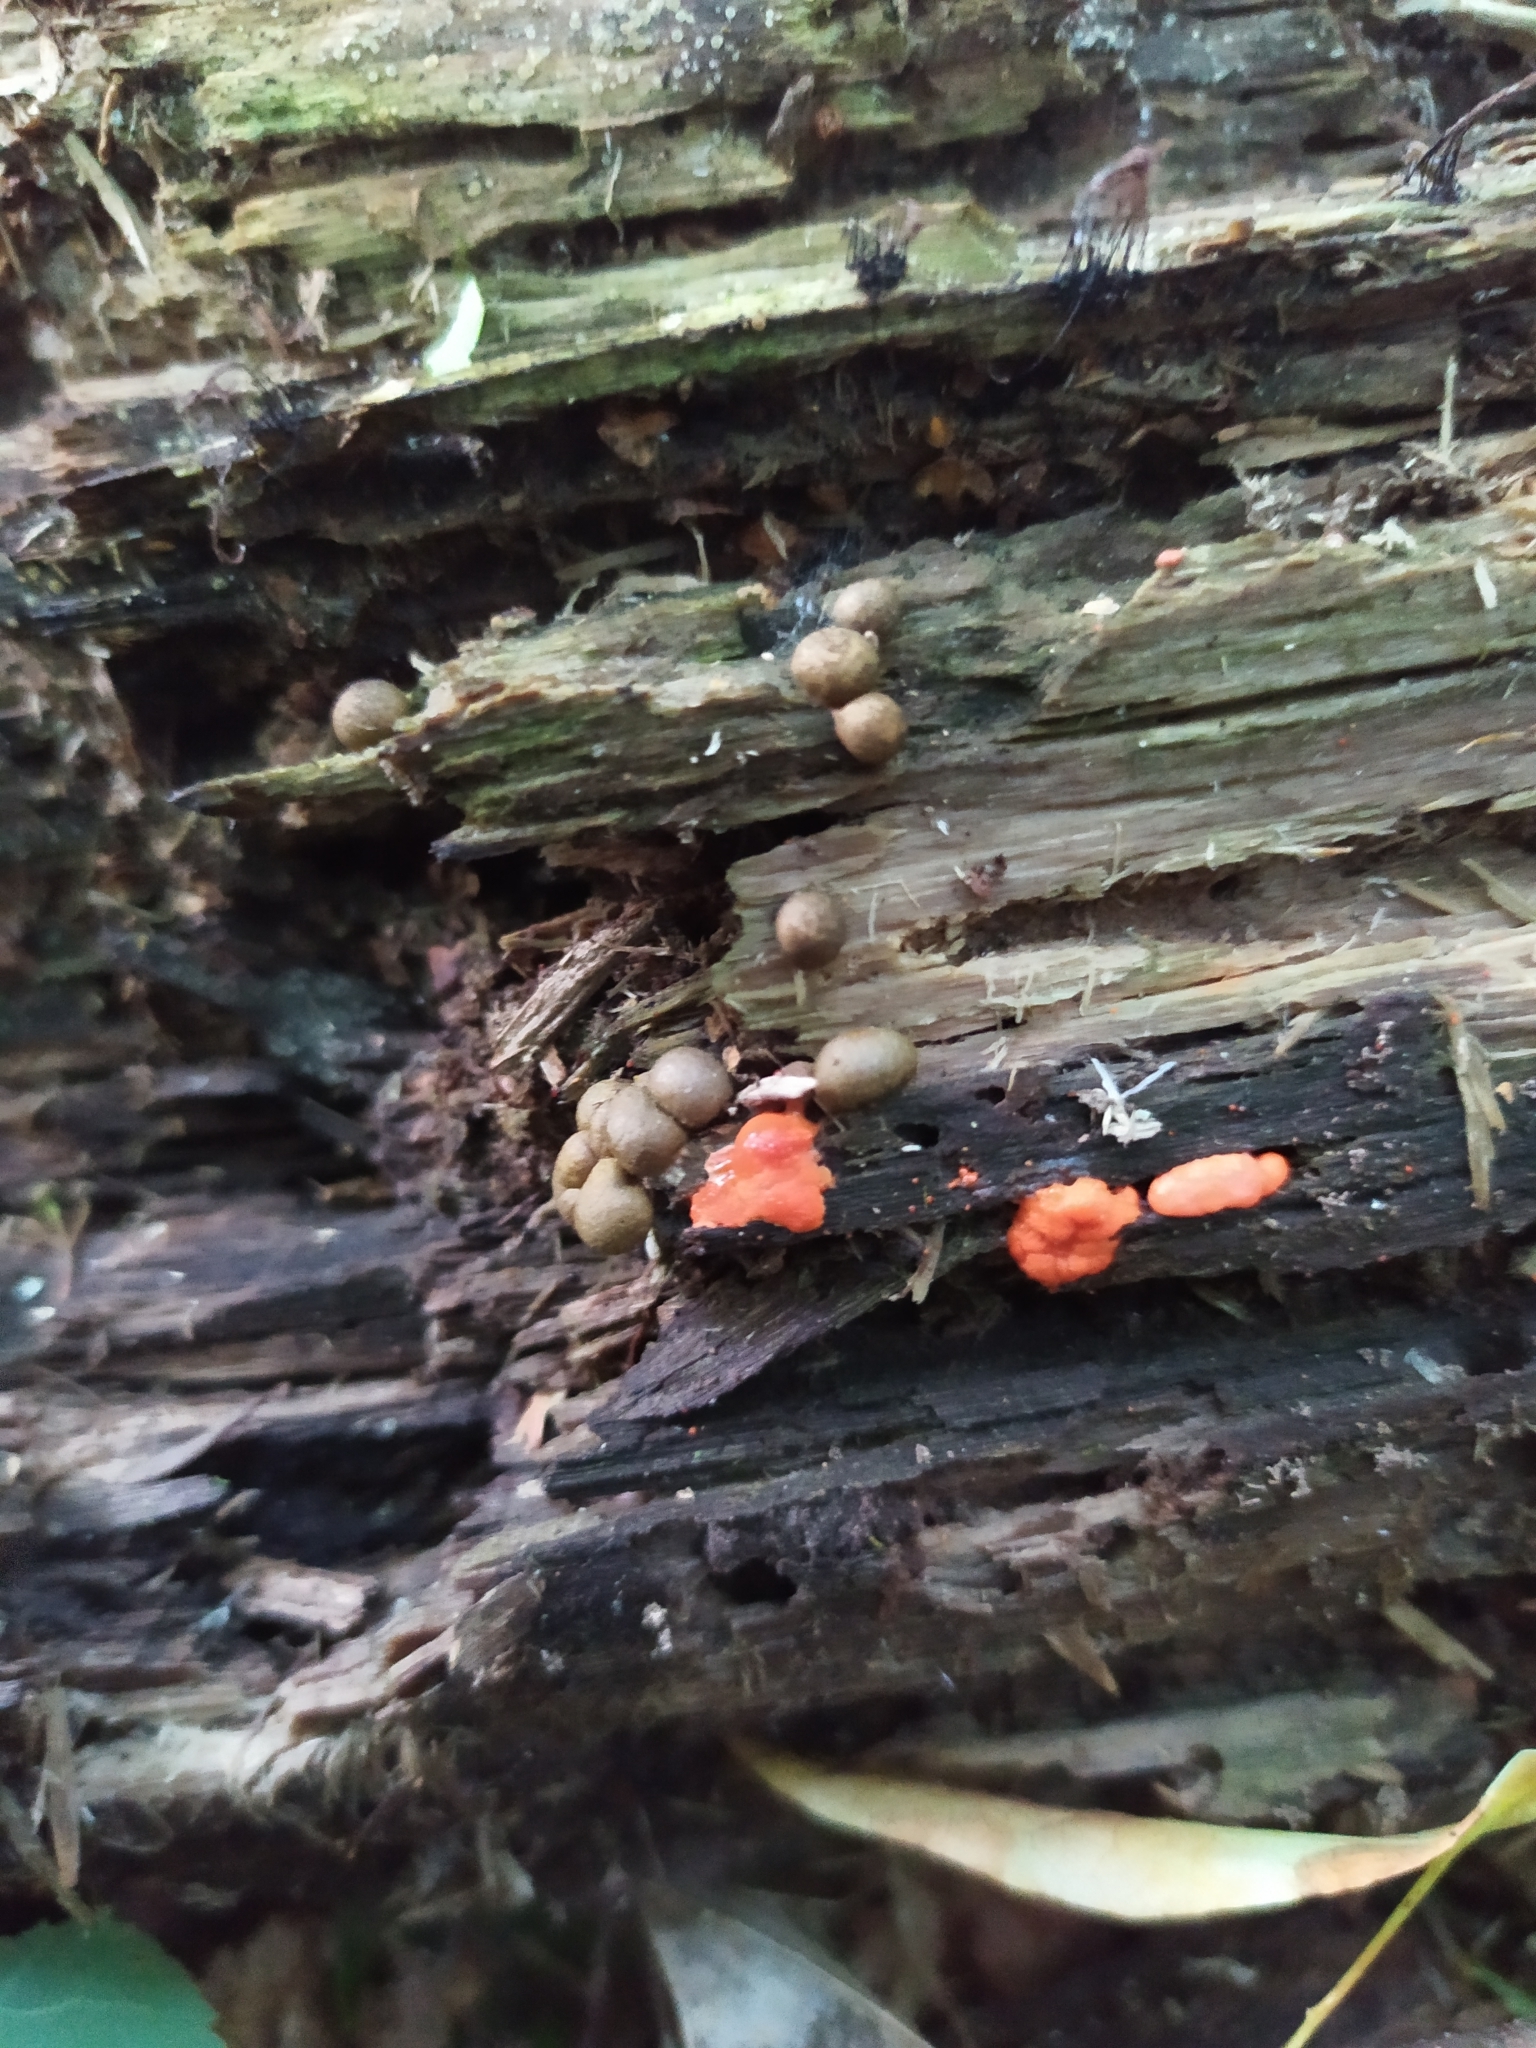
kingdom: Protozoa
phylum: Mycetozoa
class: Myxomycetes
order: Cribrariales
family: Tubiferaceae
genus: Lycogala
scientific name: Lycogala epidendrum
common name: Wolf's milk
